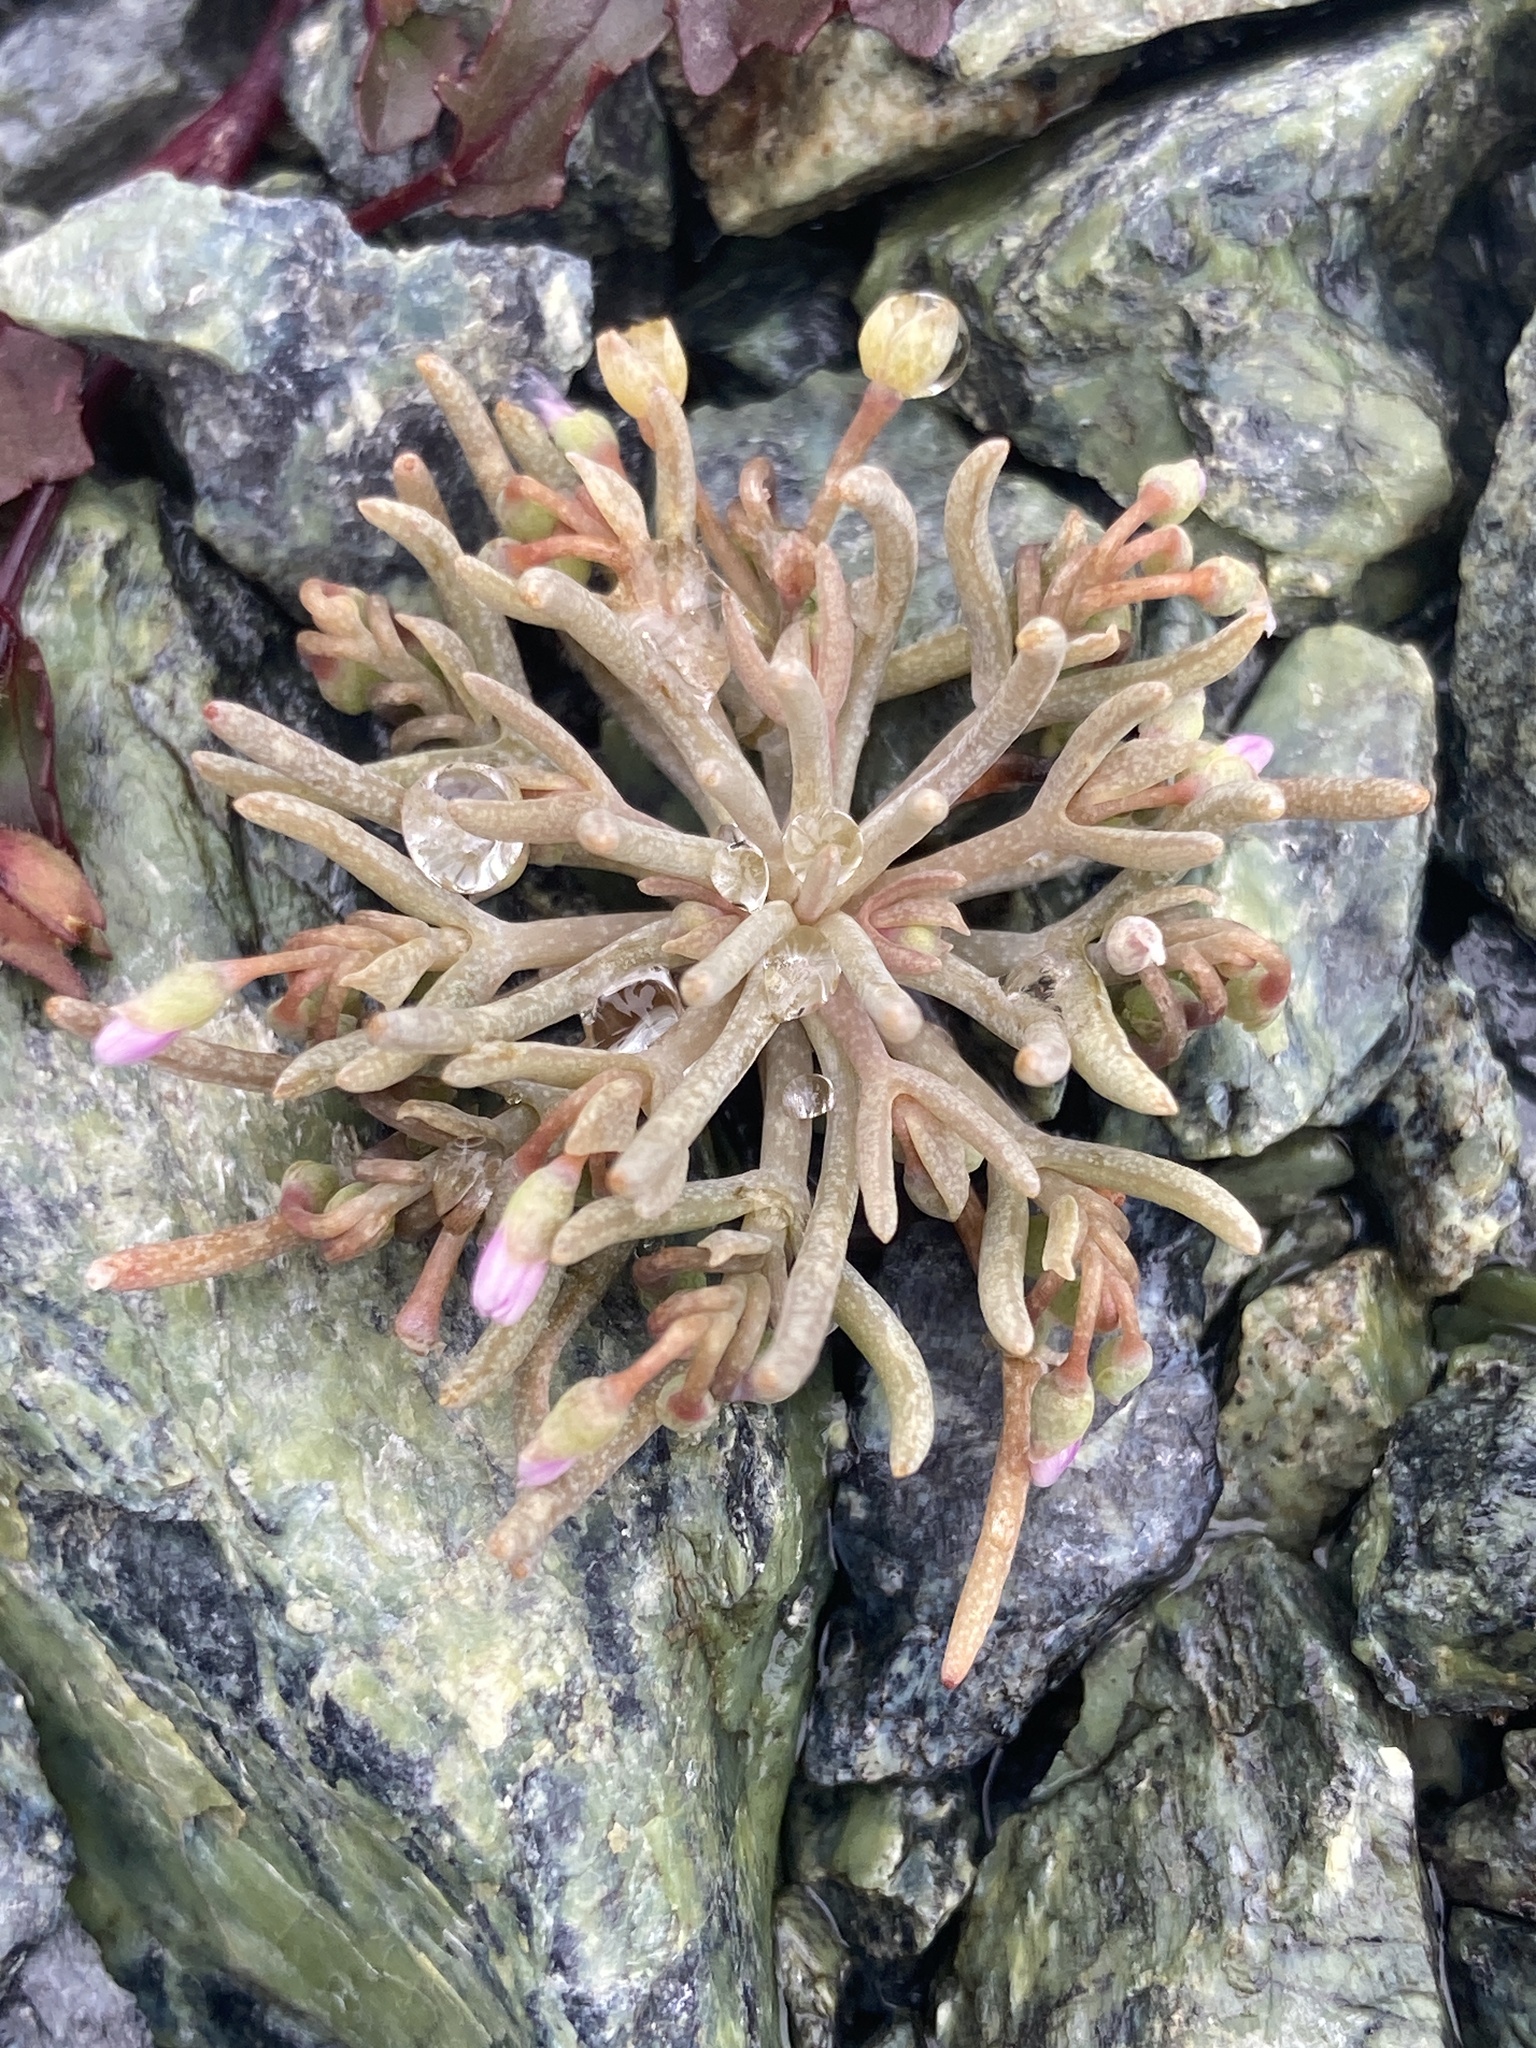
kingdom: Plantae
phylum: Tracheophyta
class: Magnoliopsida
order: Caryophyllales
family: Montiaceae
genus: Claytonia
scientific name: Claytonia exigua
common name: Pale spring beauty
